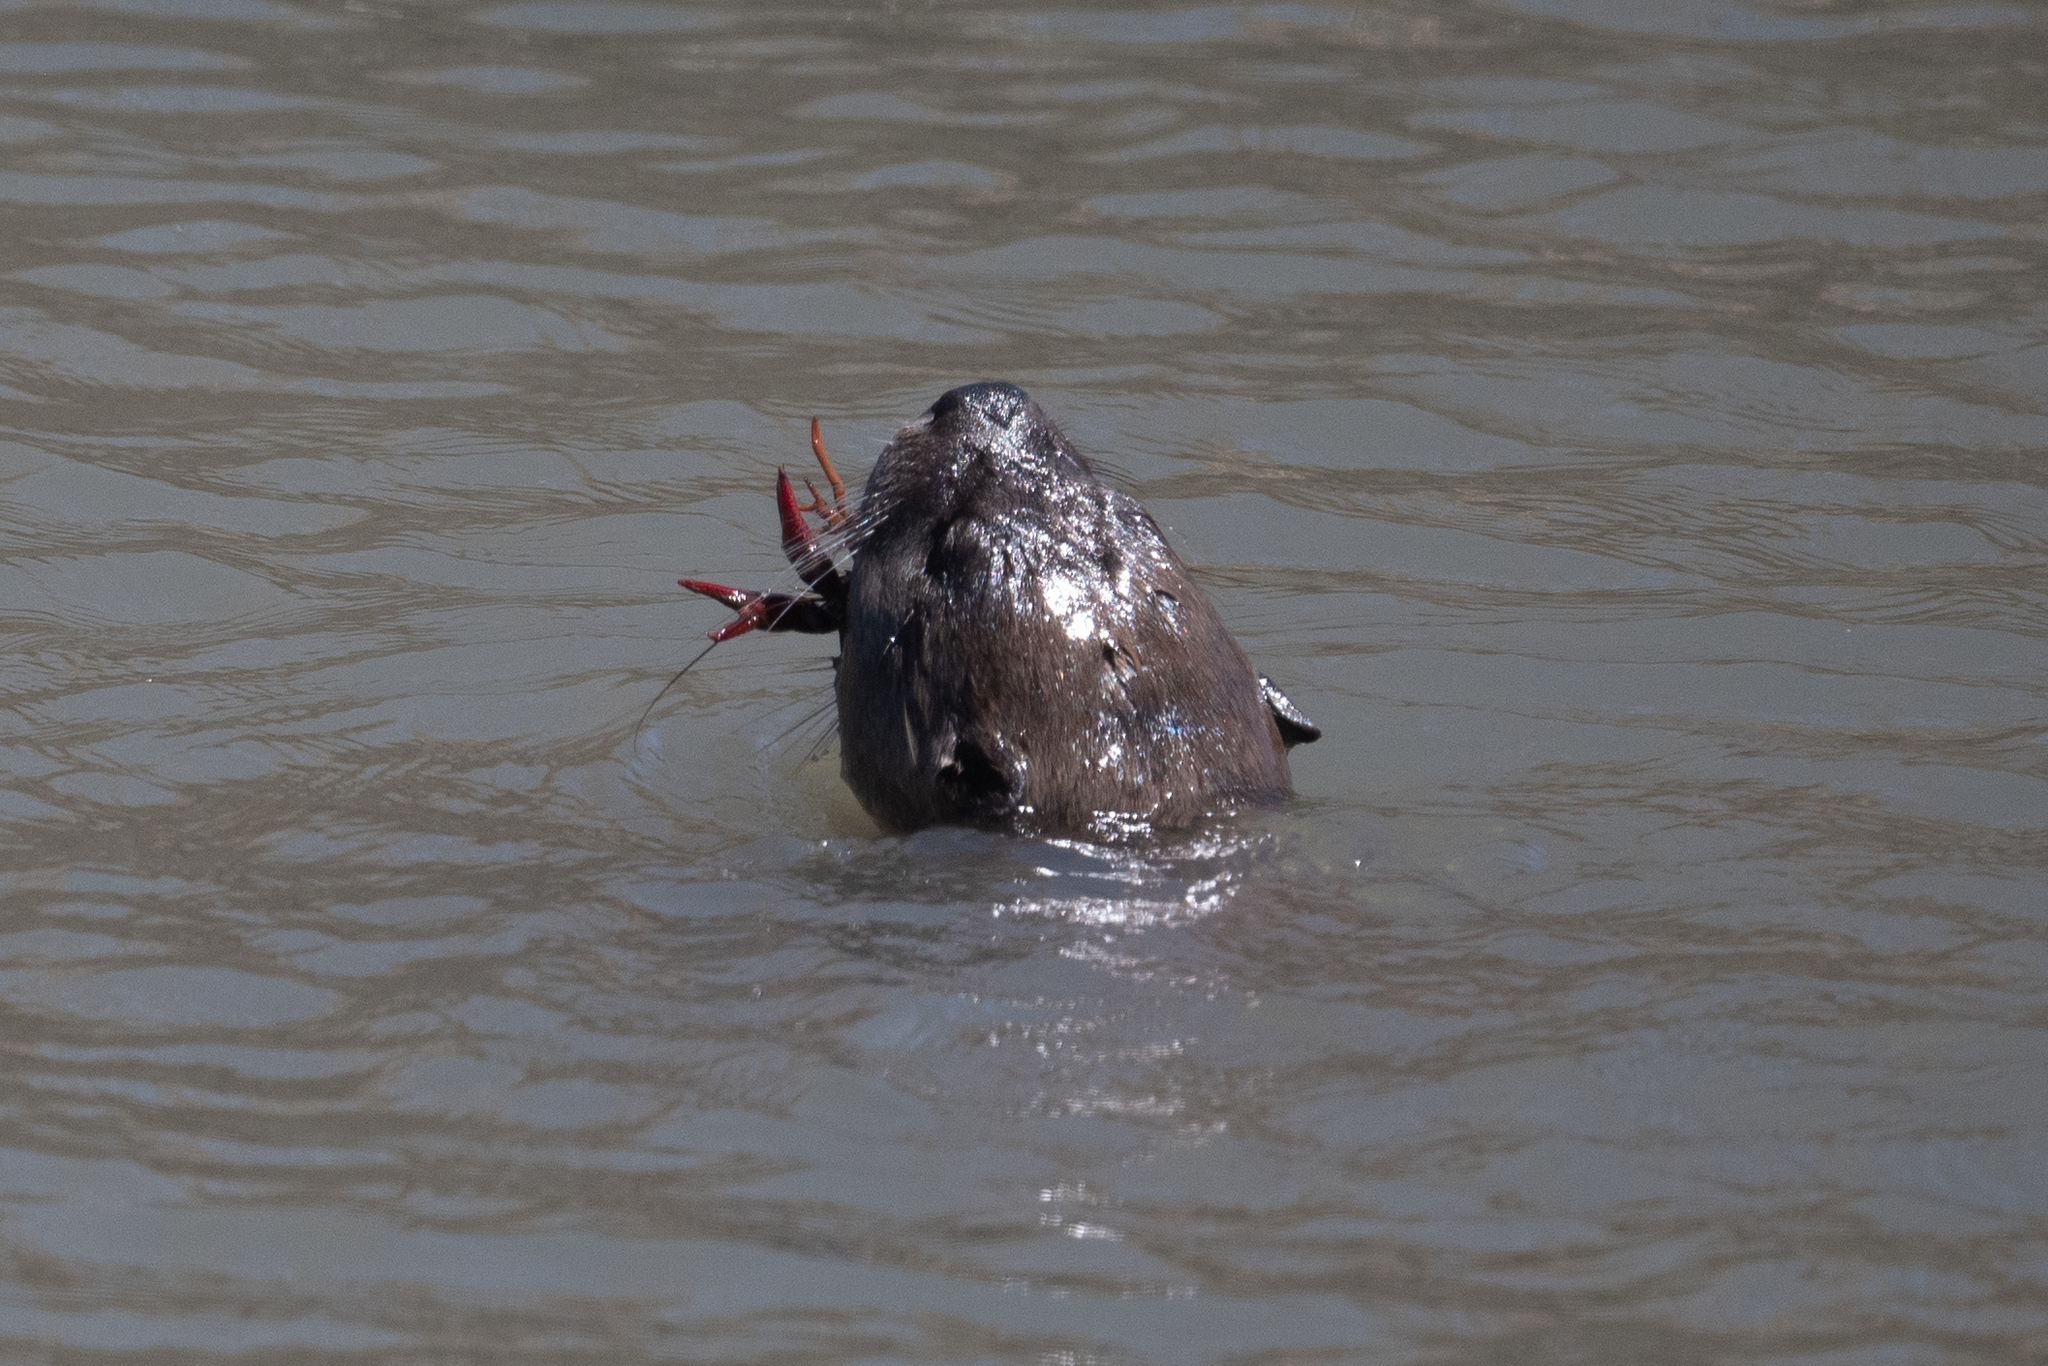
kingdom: Animalia
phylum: Chordata
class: Mammalia
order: Carnivora
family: Mustelidae
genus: Lontra
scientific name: Lontra canadensis
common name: North american river otter
